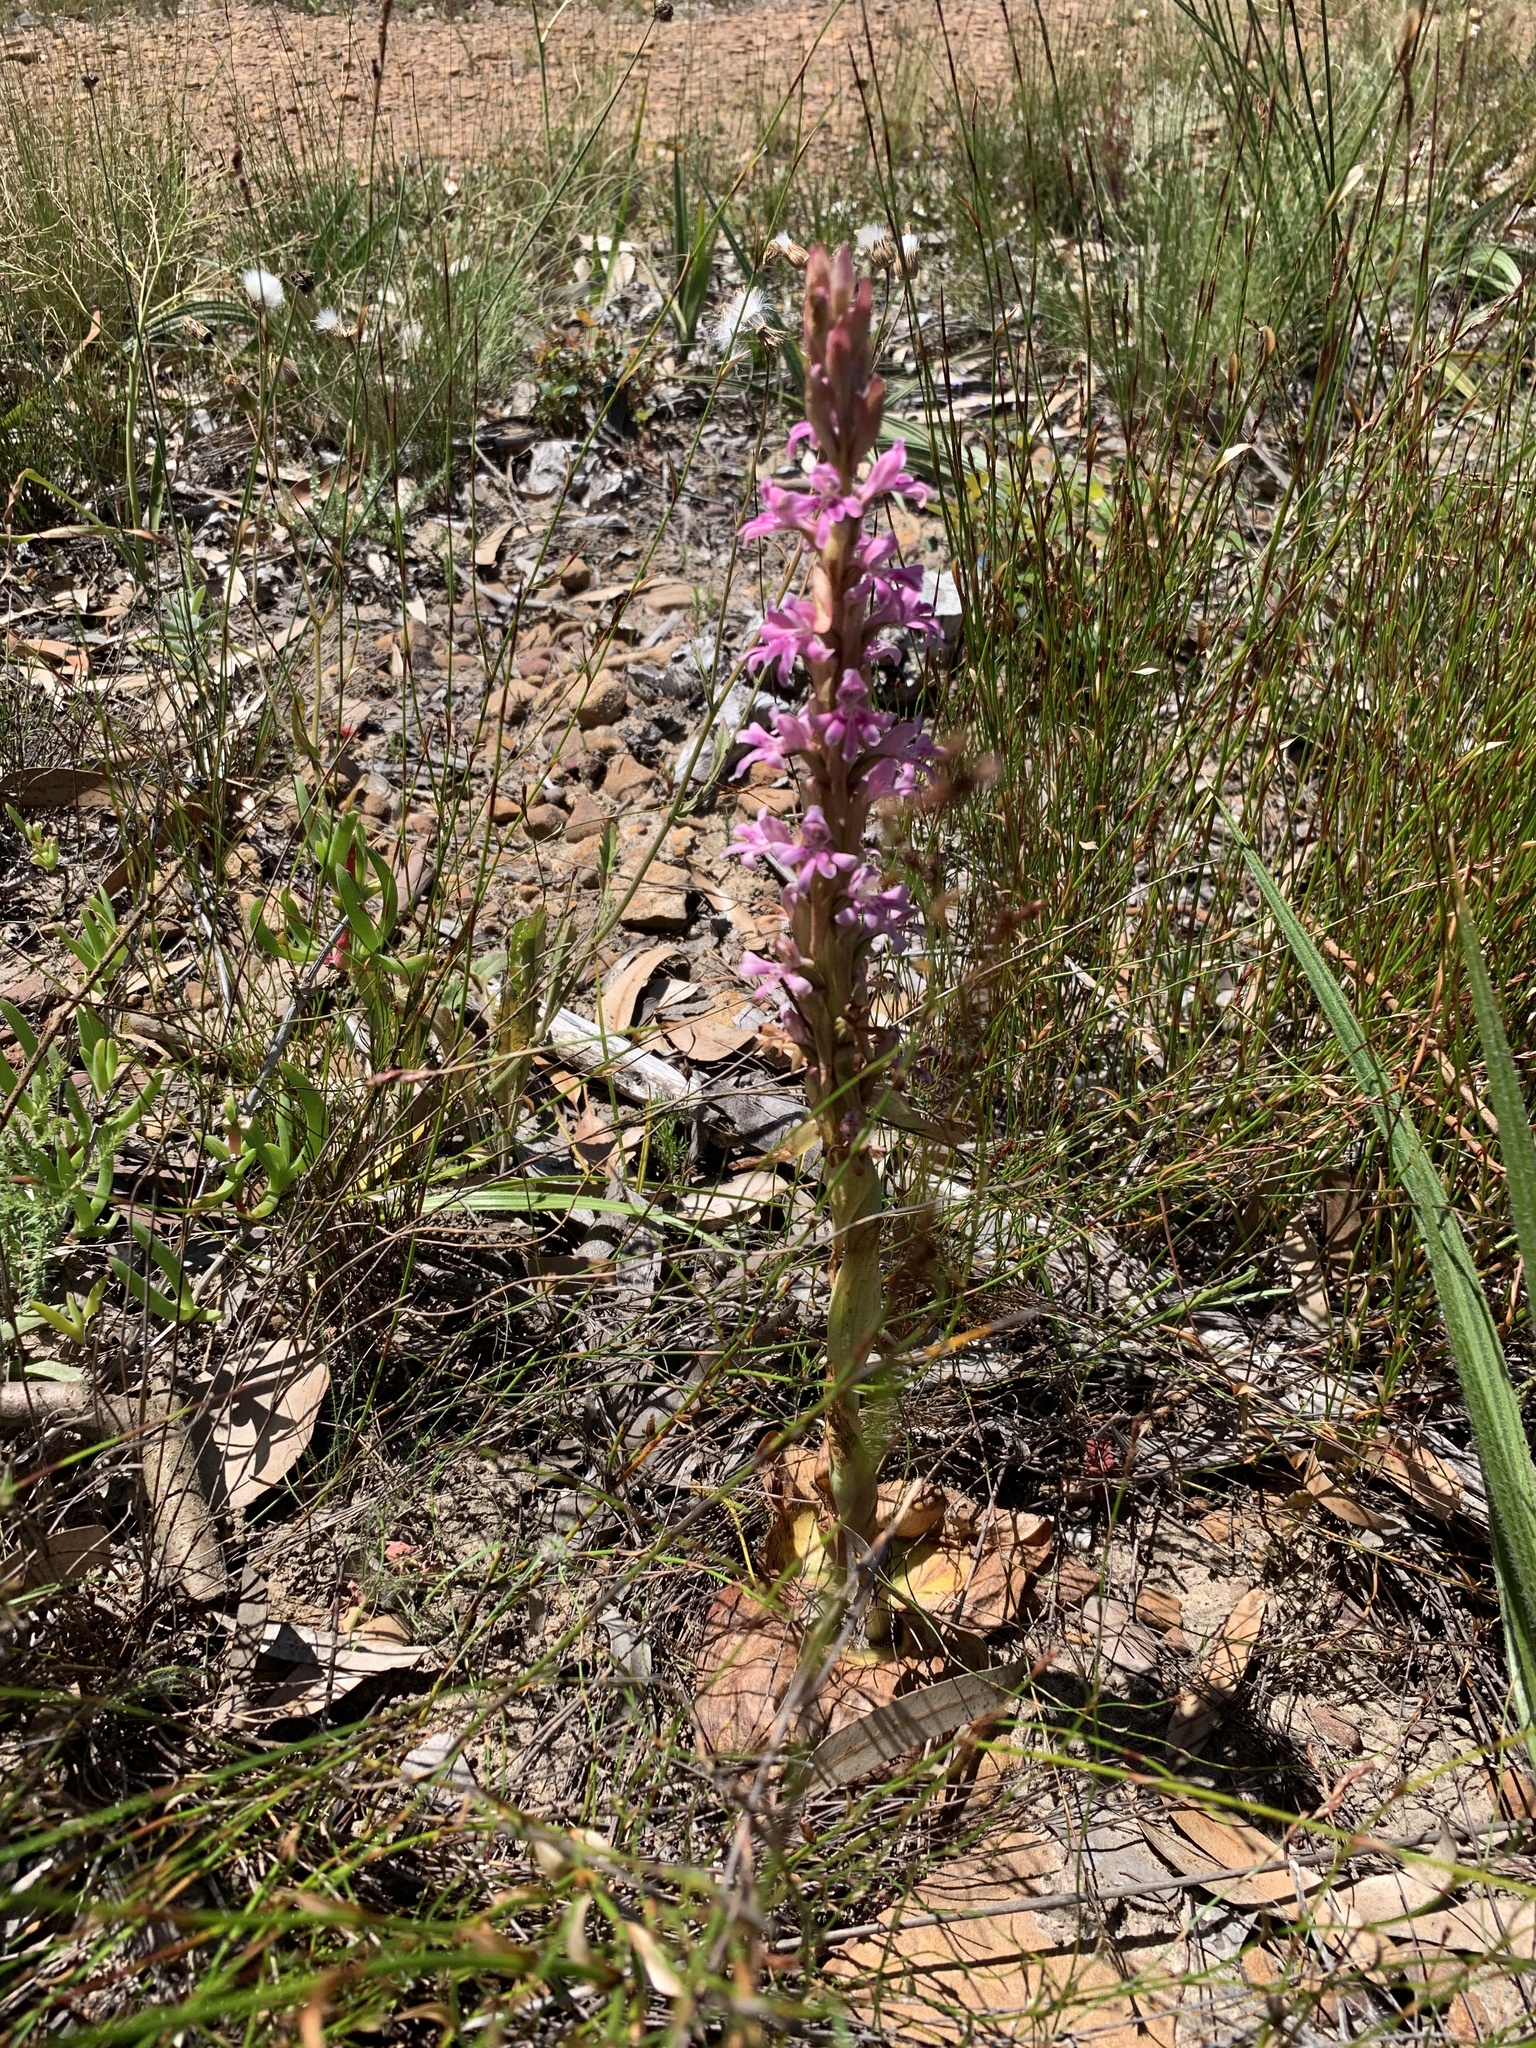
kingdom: Plantae
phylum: Tracheophyta
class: Liliopsida
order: Asparagales
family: Orchidaceae
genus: Satyrium
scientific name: Satyrium erectum
